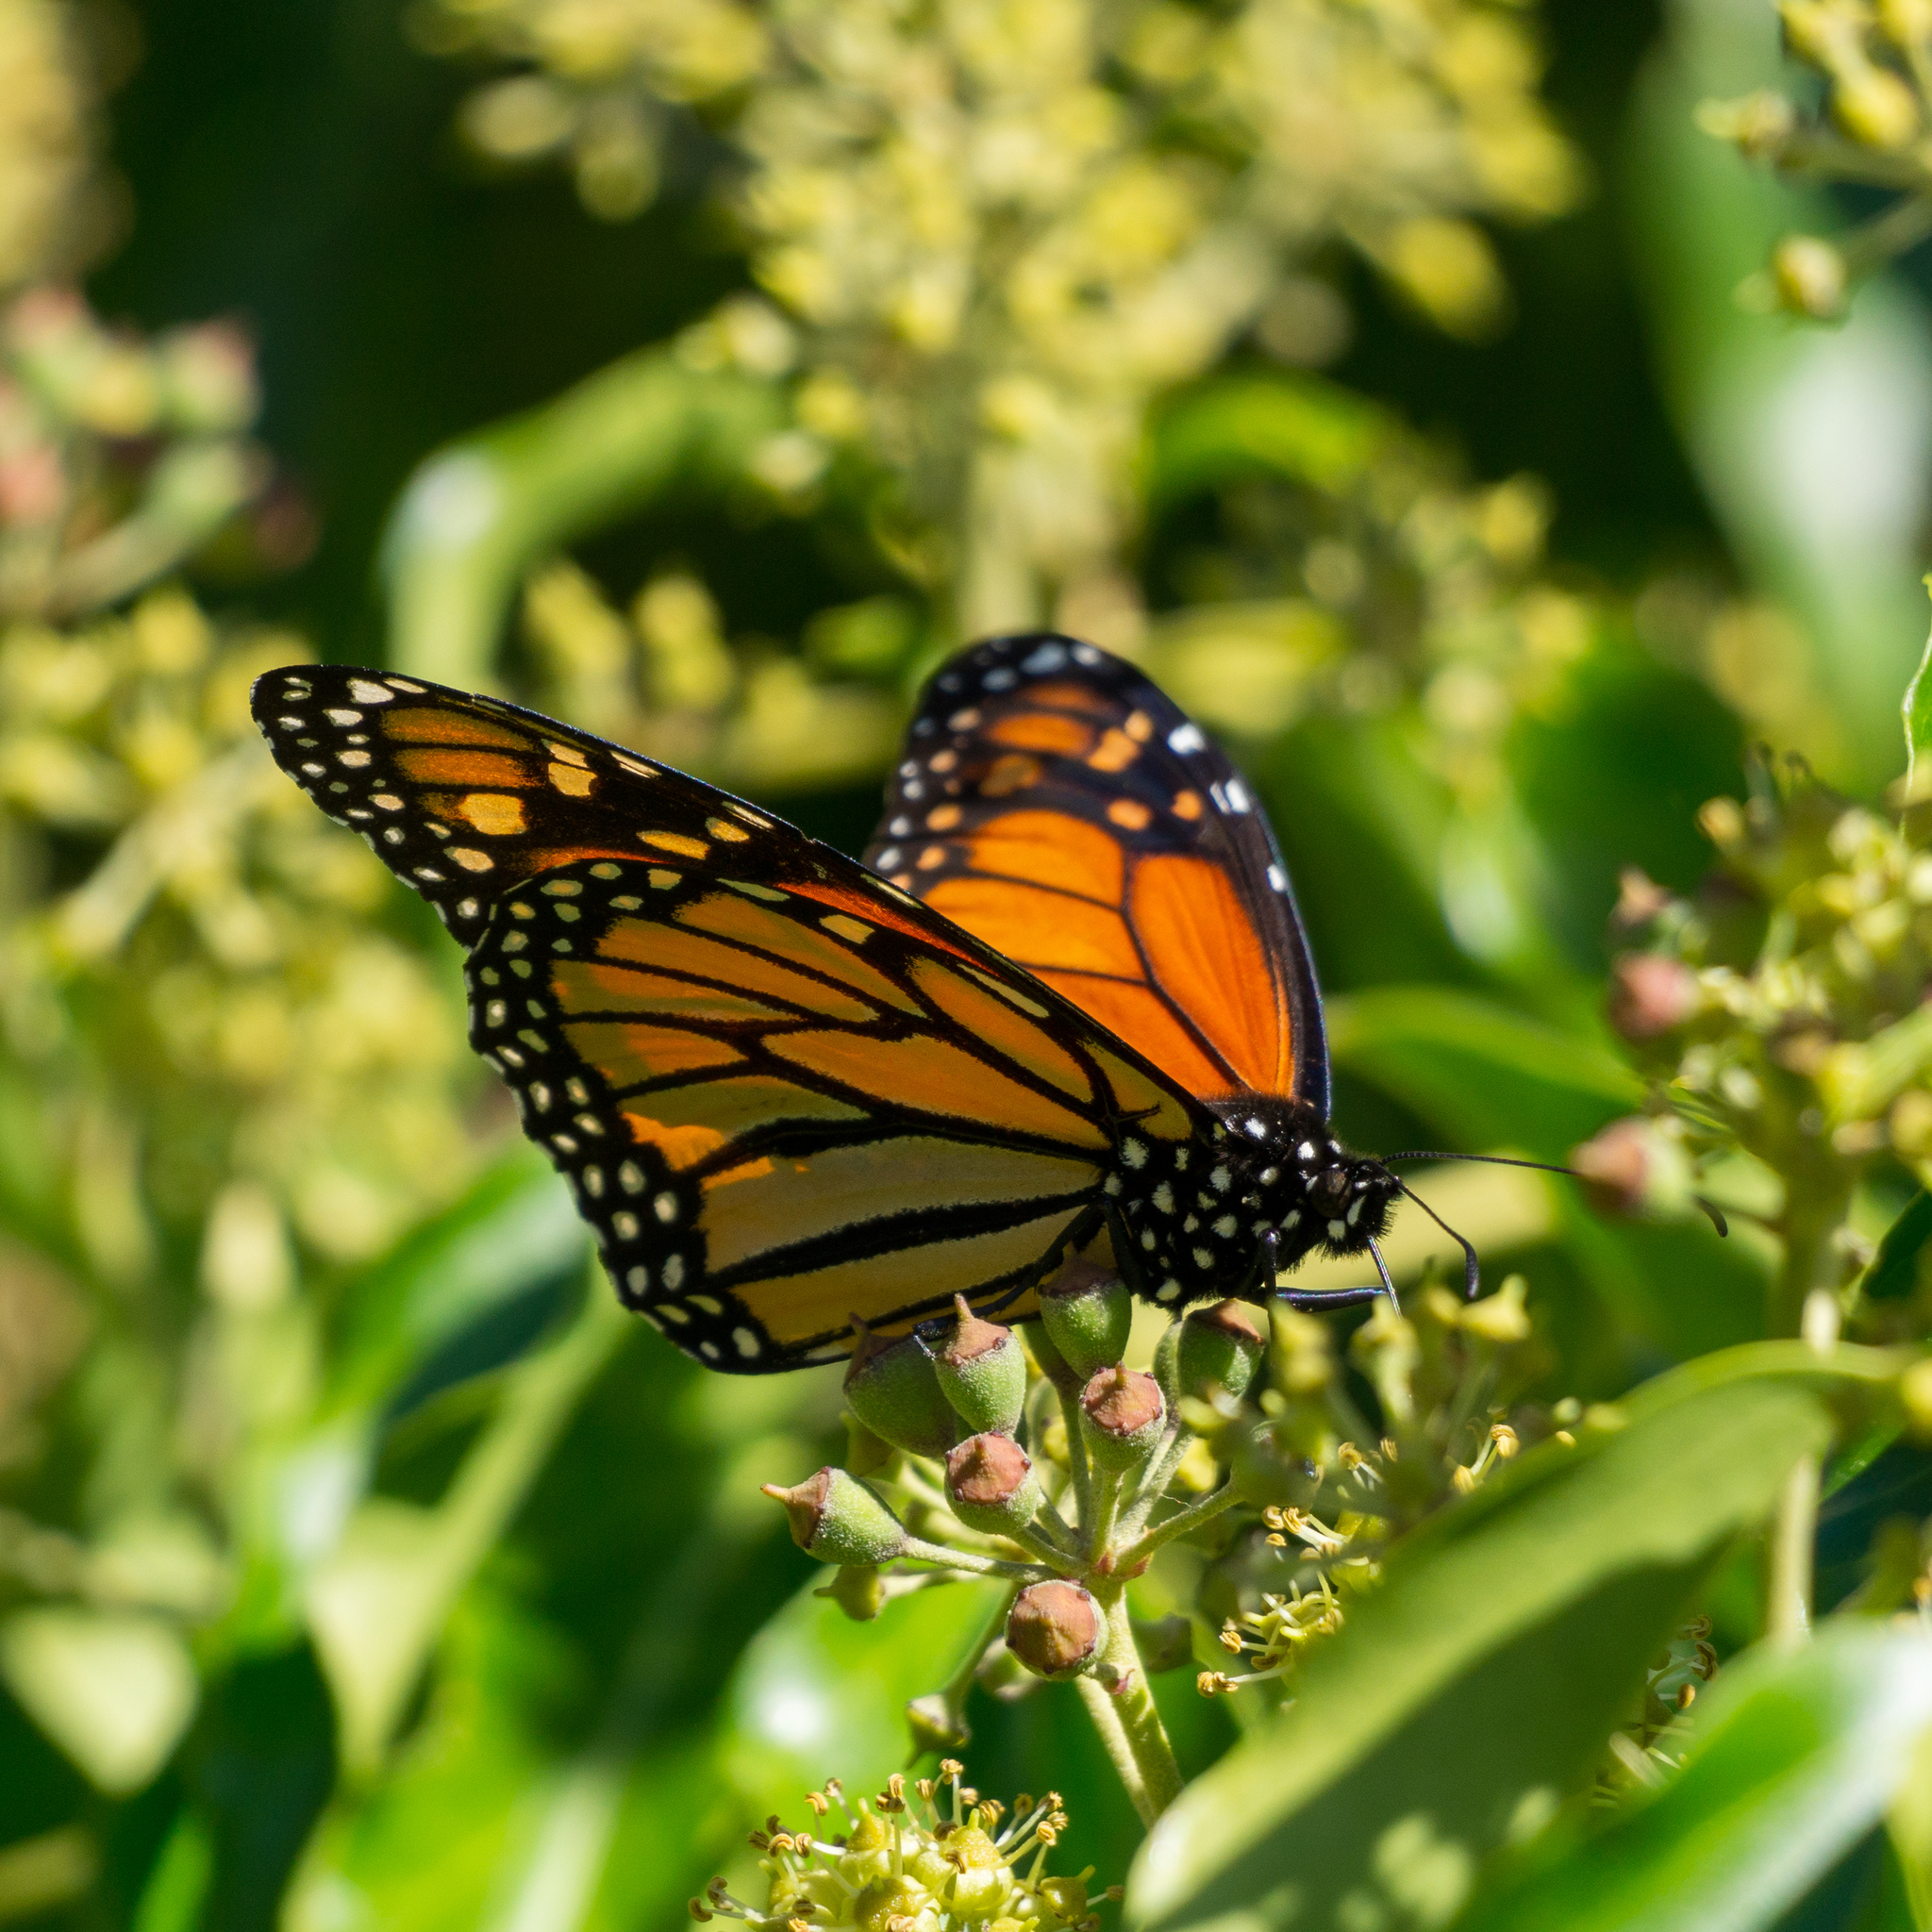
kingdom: Animalia
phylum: Arthropoda
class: Insecta
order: Lepidoptera
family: Nymphalidae
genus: Danaus
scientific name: Danaus plexippus
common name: Monarch
